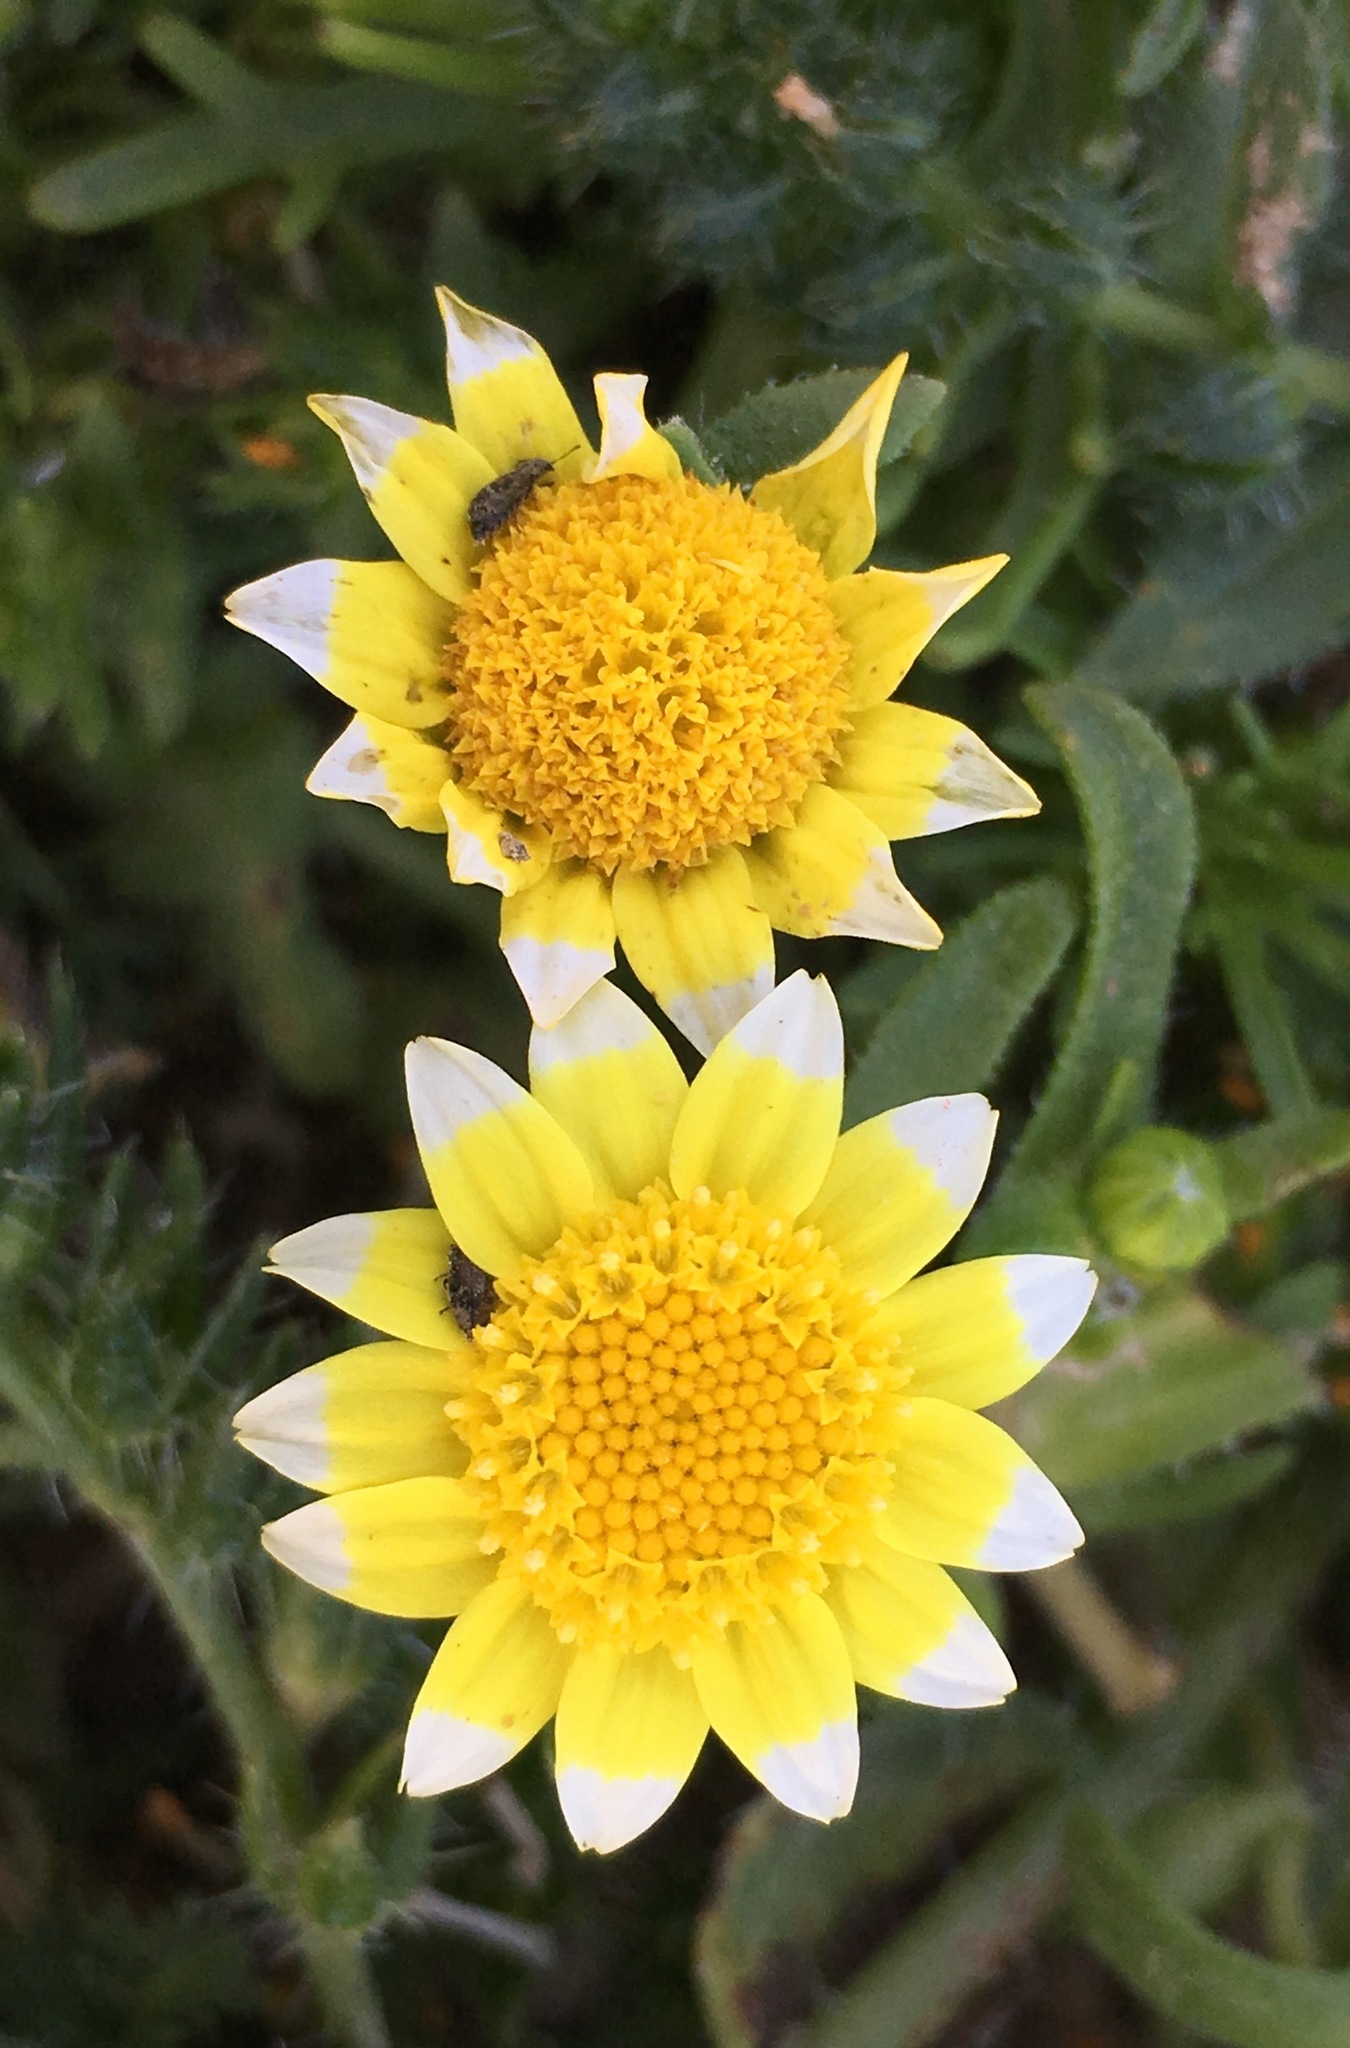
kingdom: Plantae
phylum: Tracheophyta
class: Magnoliopsida
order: Asterales
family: Asteraceae
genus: Lasthenia
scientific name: Lasthenia gracilis
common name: Common goldfields
